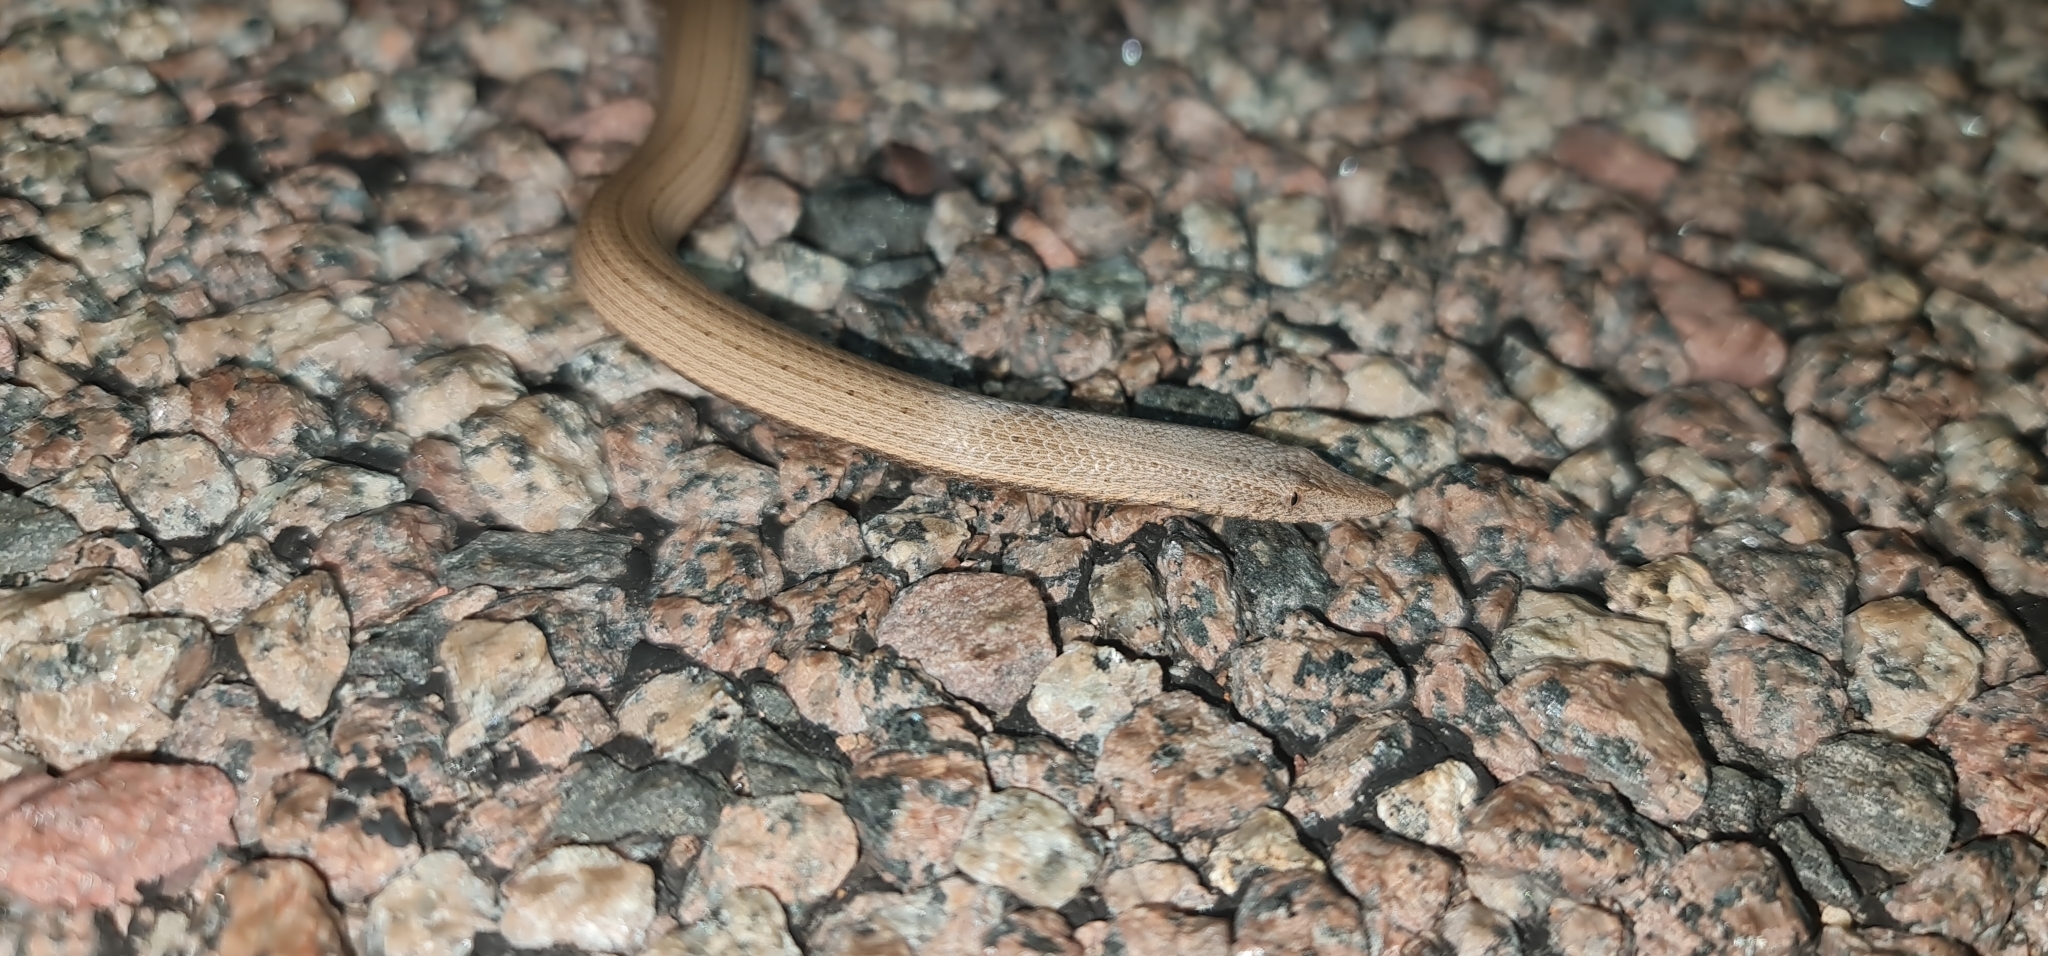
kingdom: Animalia
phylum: Chordata
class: Squamata
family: Pygopodidae
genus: Lialis
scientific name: Lialis burtonis
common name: Burton's legless lizard
